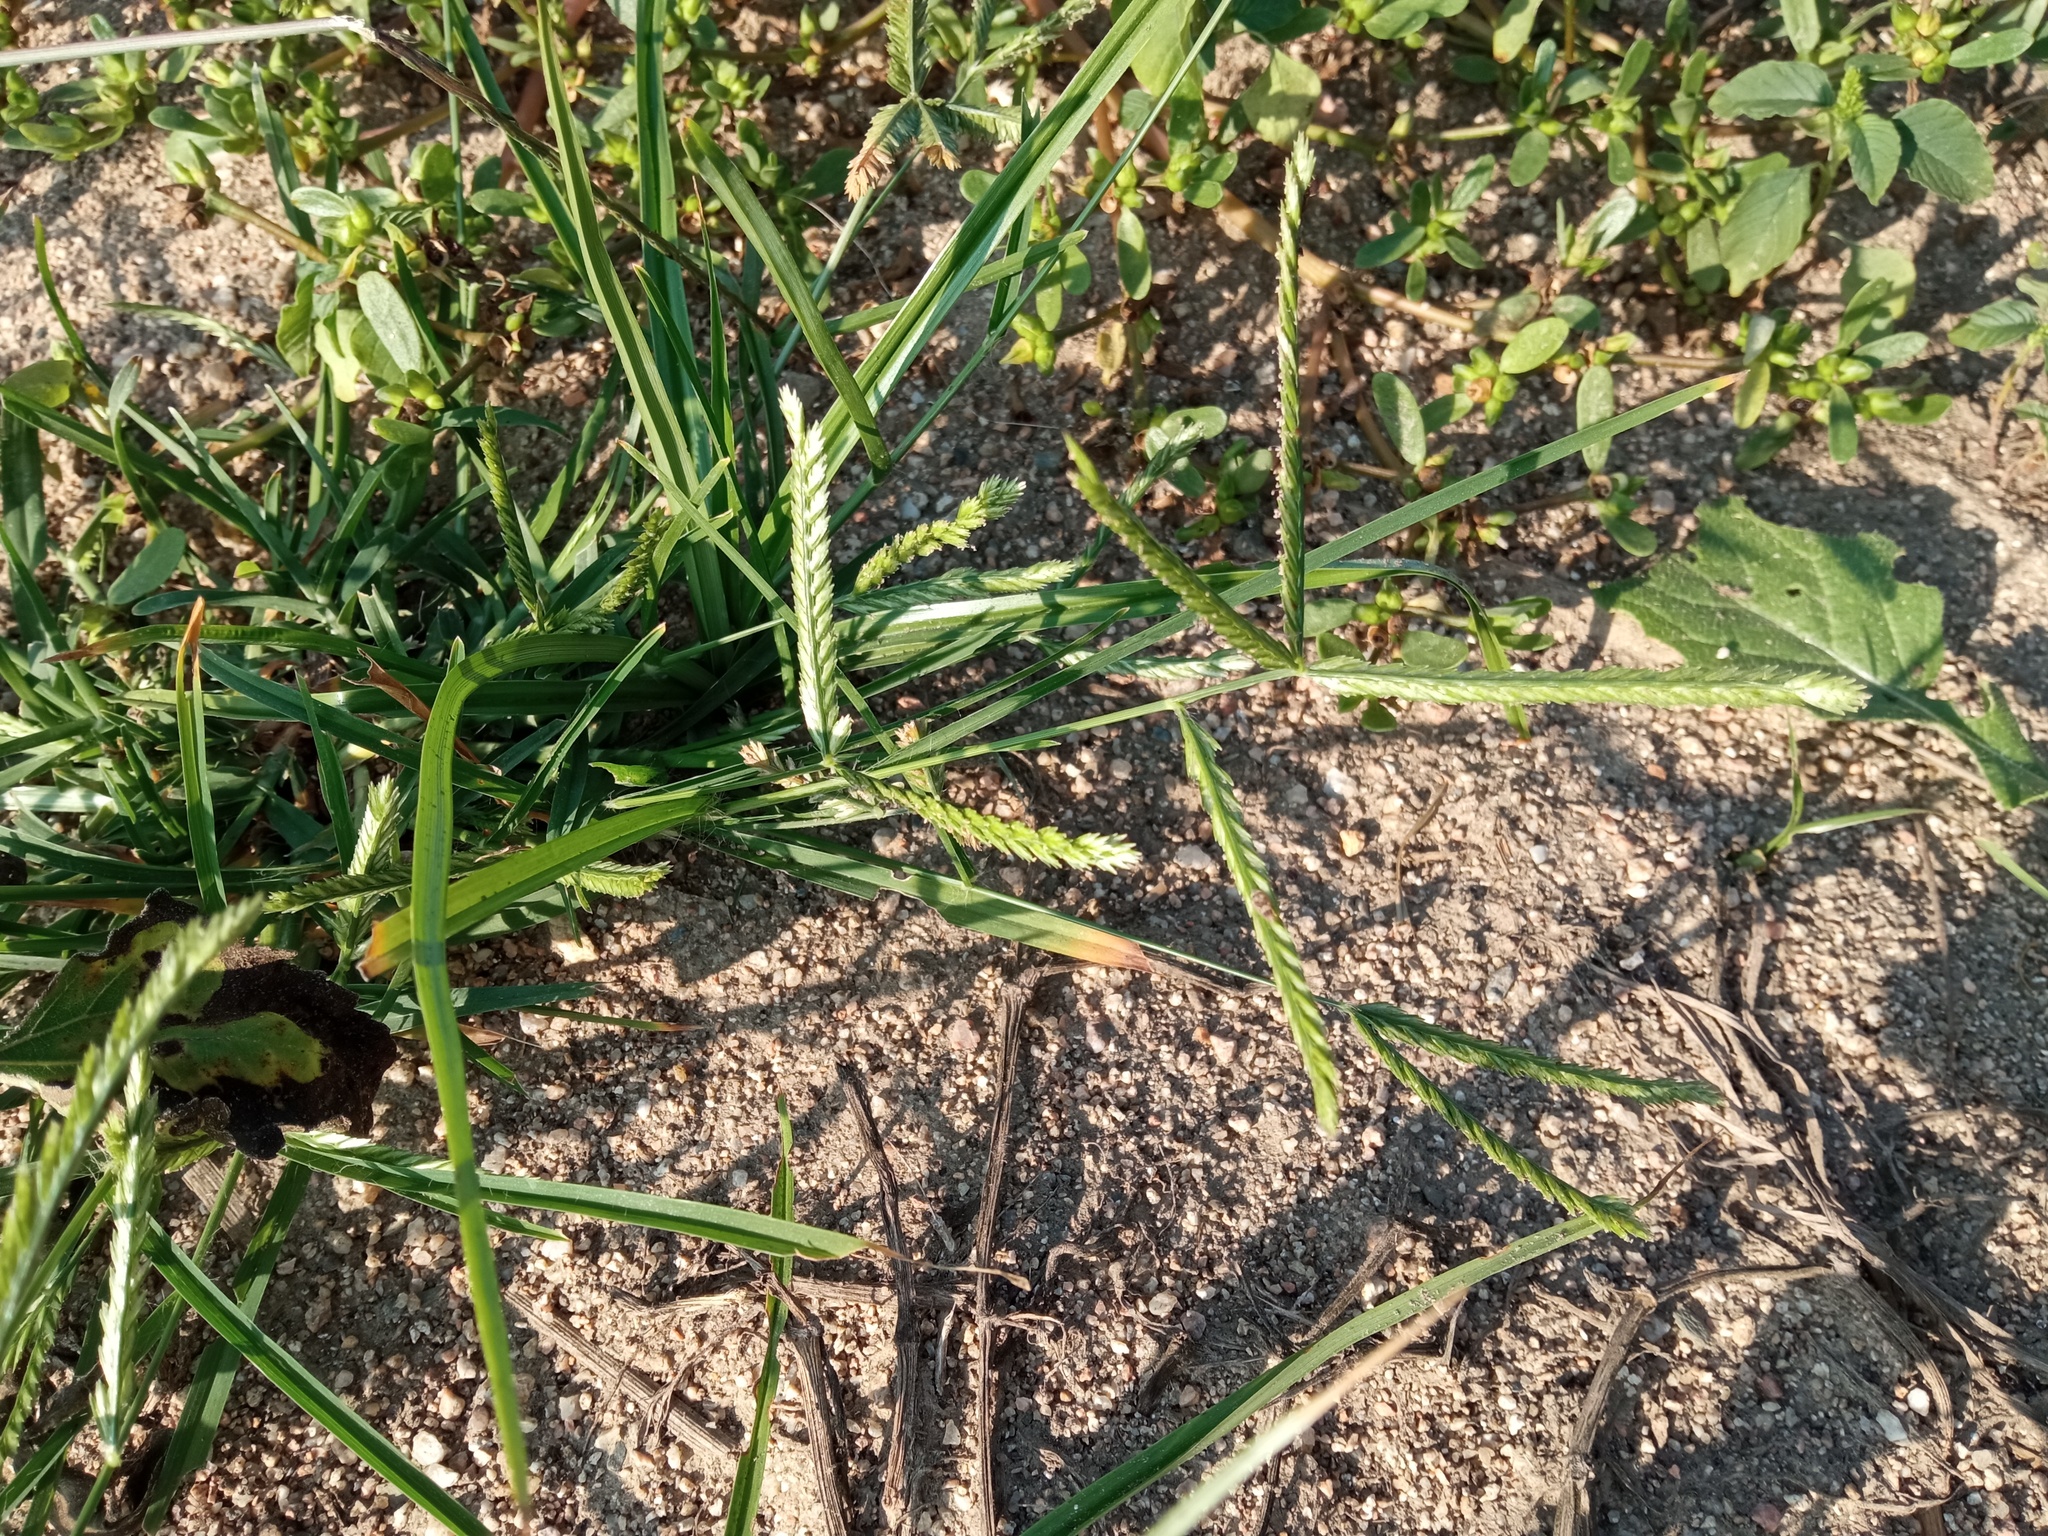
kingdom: Plantae
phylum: Tracheophyta
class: Liliopsida
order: Poales
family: Poaceae
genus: Eleusine
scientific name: Eleusine indica
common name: Yard-grass
